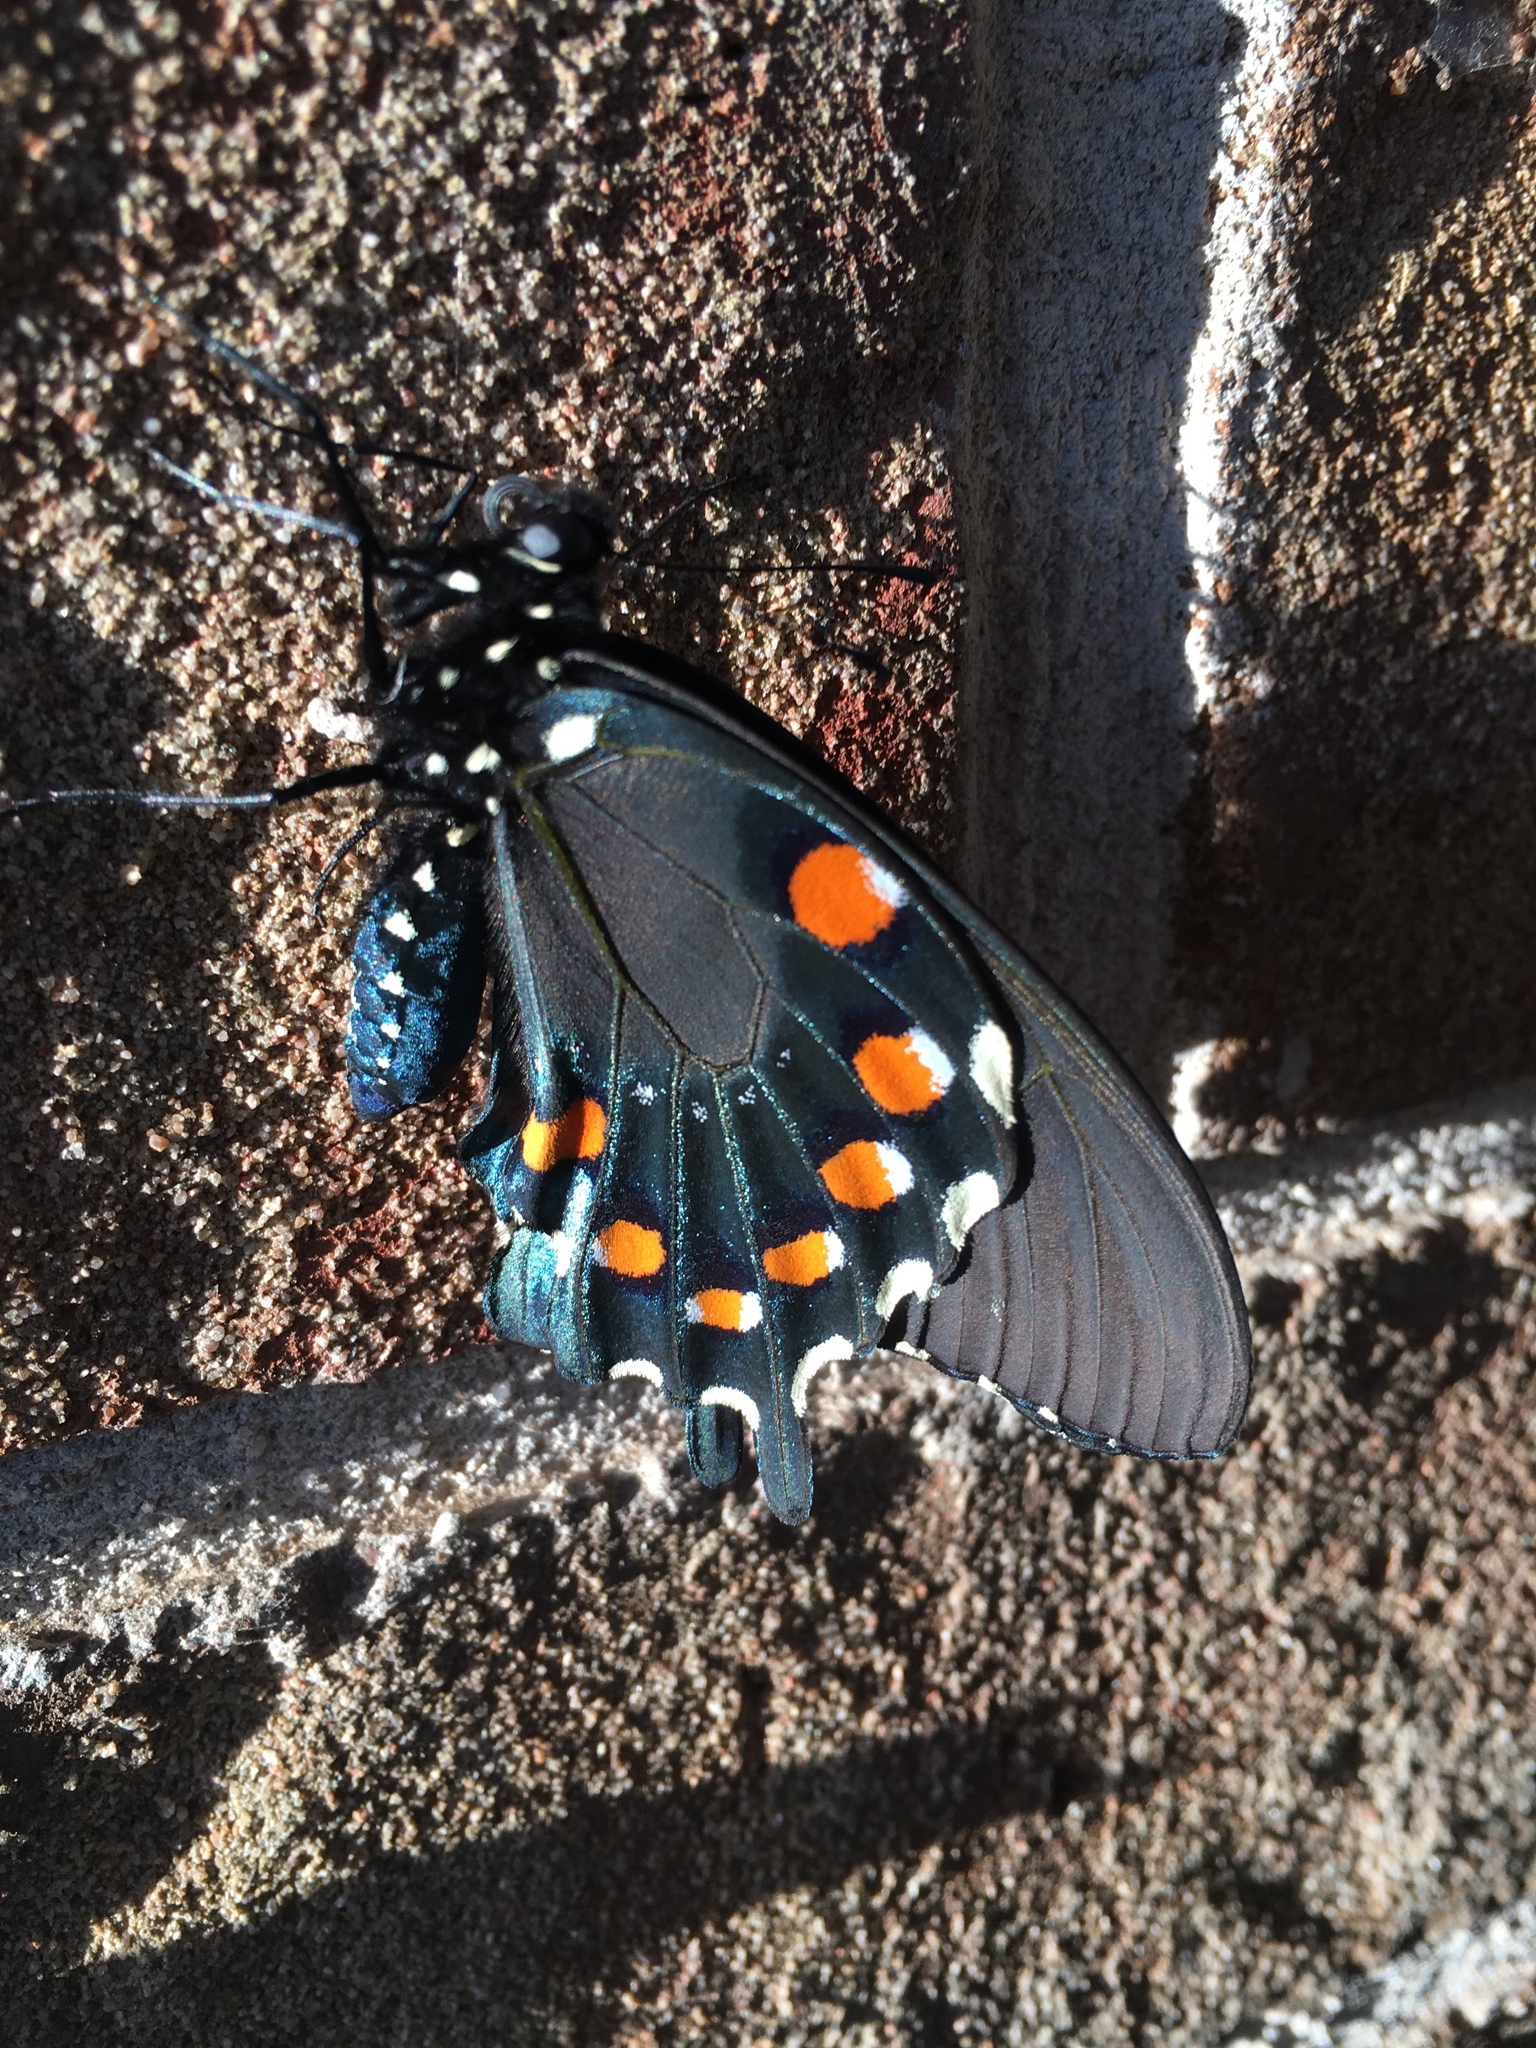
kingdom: Animalia
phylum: Arthropoda
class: Insecta
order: Lepidoptera
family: Papilionidae
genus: Battus
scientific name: Battus philenor
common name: Pipevine swallowtail
